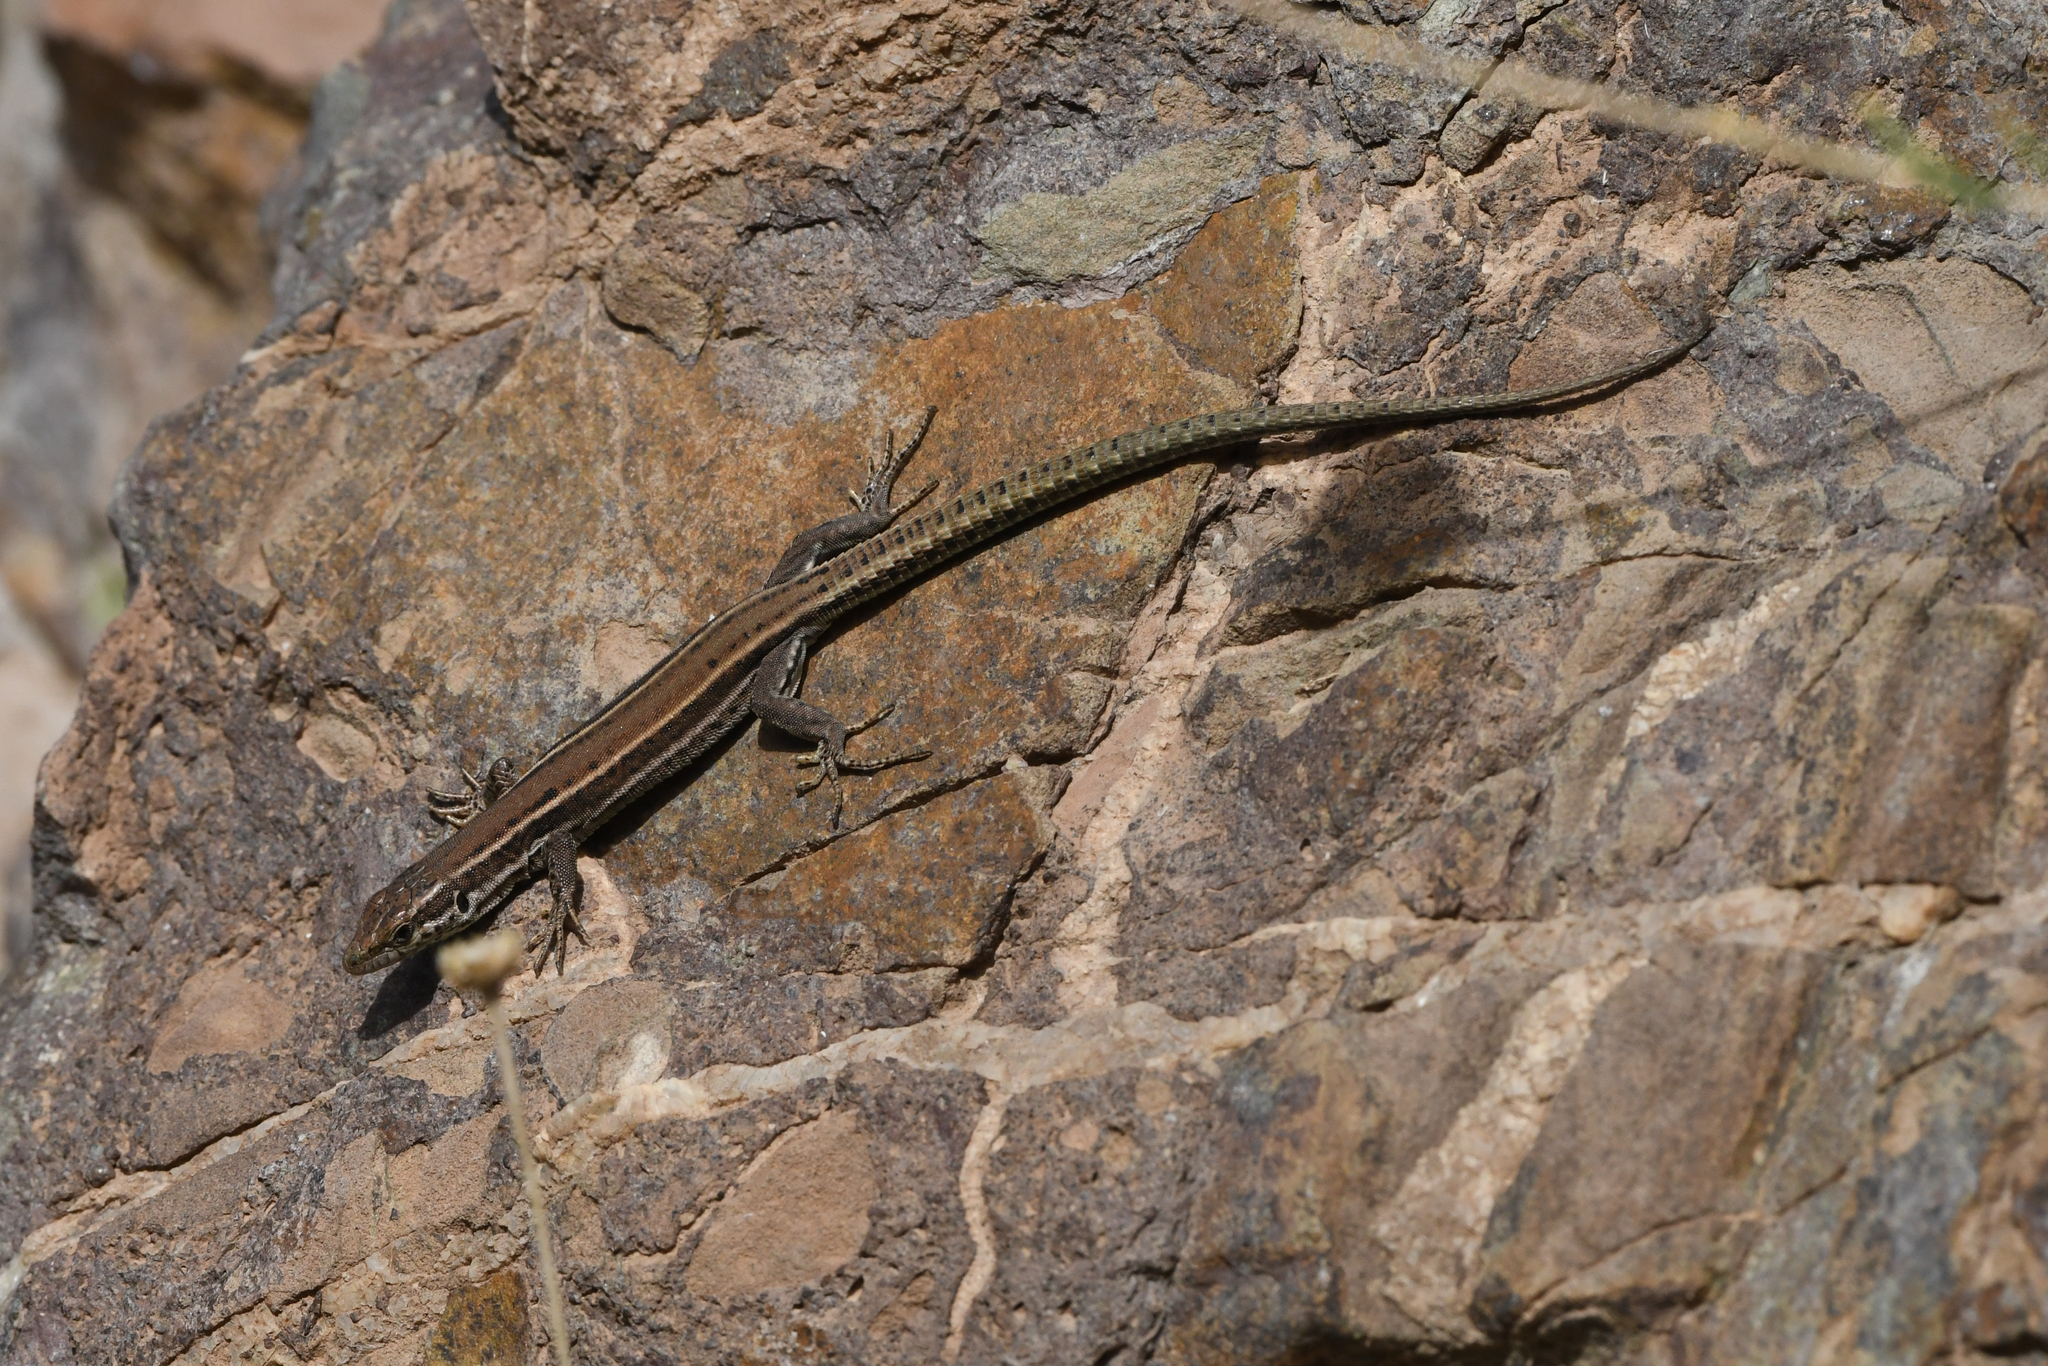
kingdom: Animalia
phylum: Chordata
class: Squamata
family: Lacertidae
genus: Podarcis
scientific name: Podarcis vaucheri
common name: Vaucher's wall lizard
